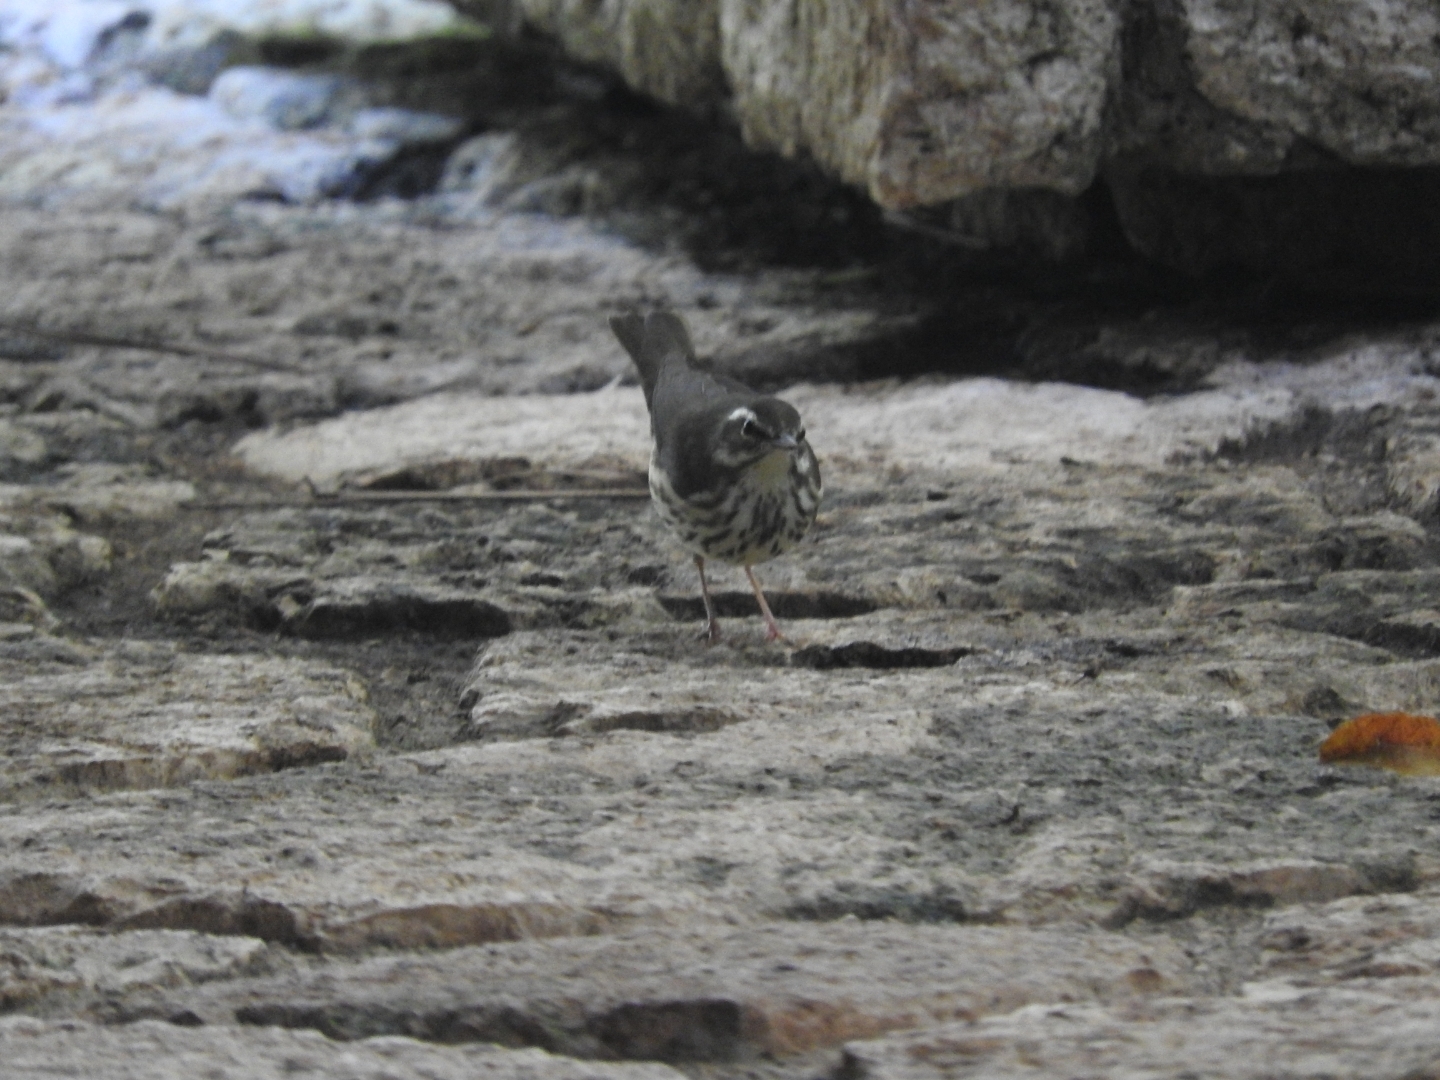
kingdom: Animalia
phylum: Chordata
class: Aves
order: Passeriformes
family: Parulidae
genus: Parkesia
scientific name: Parkesia noveboracensis
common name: Northern waterthrush
